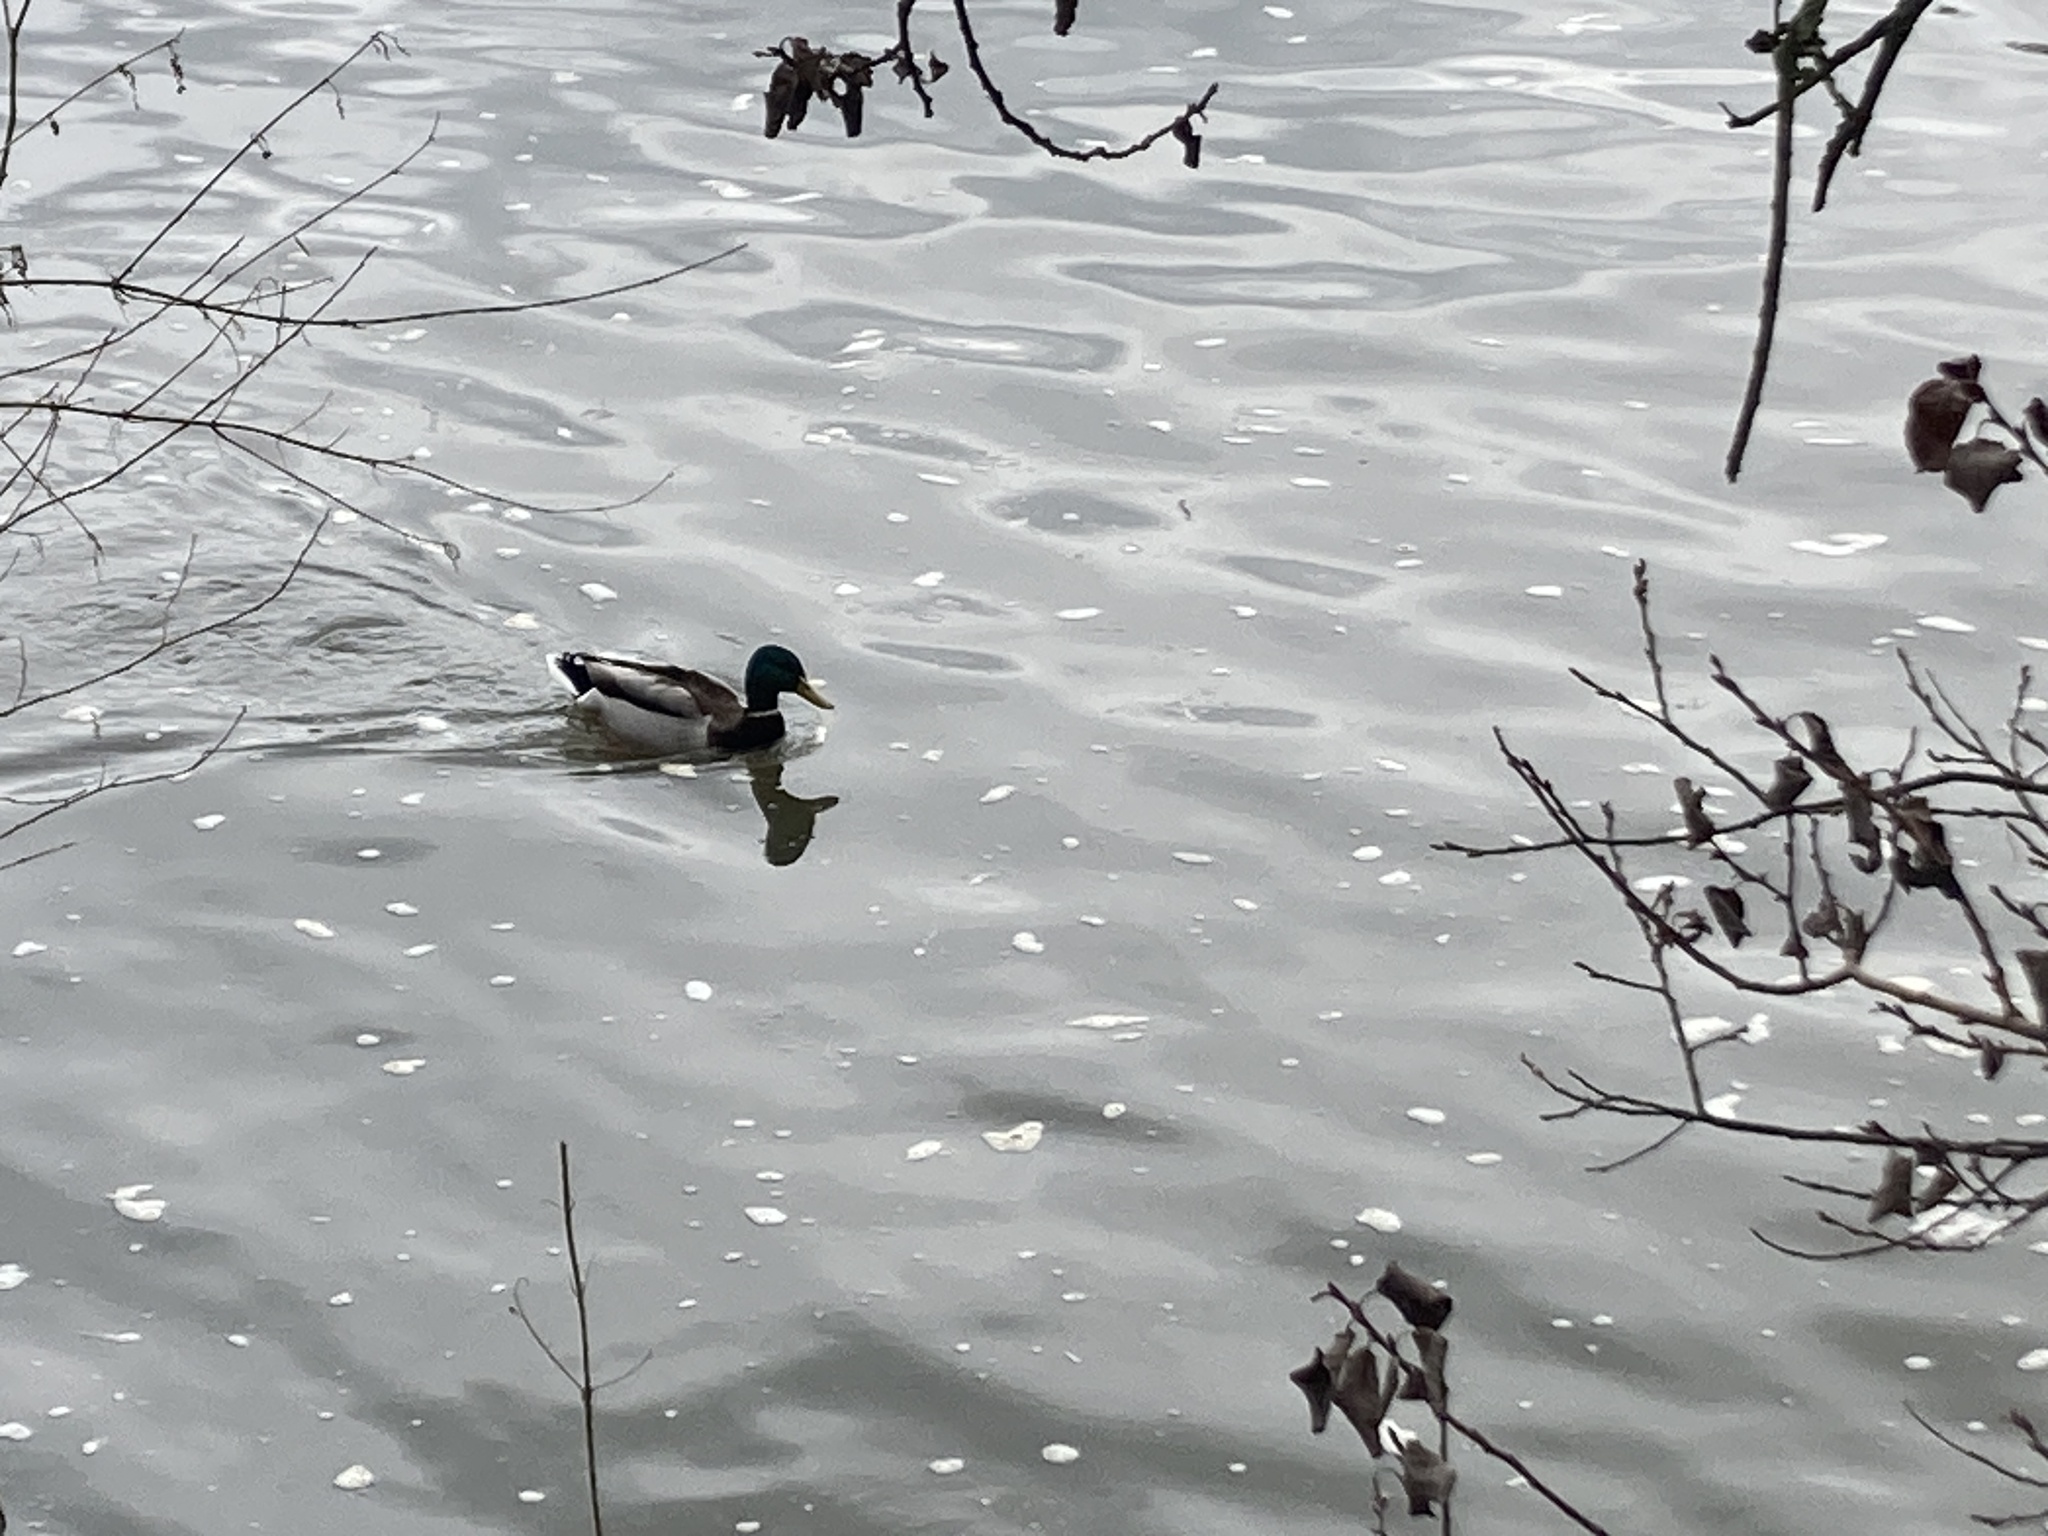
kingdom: Animalia
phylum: Chordata
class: Aves
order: Anseriformes
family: Anatidae
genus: Anas
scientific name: Anas platyrhynchos
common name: Mallard
